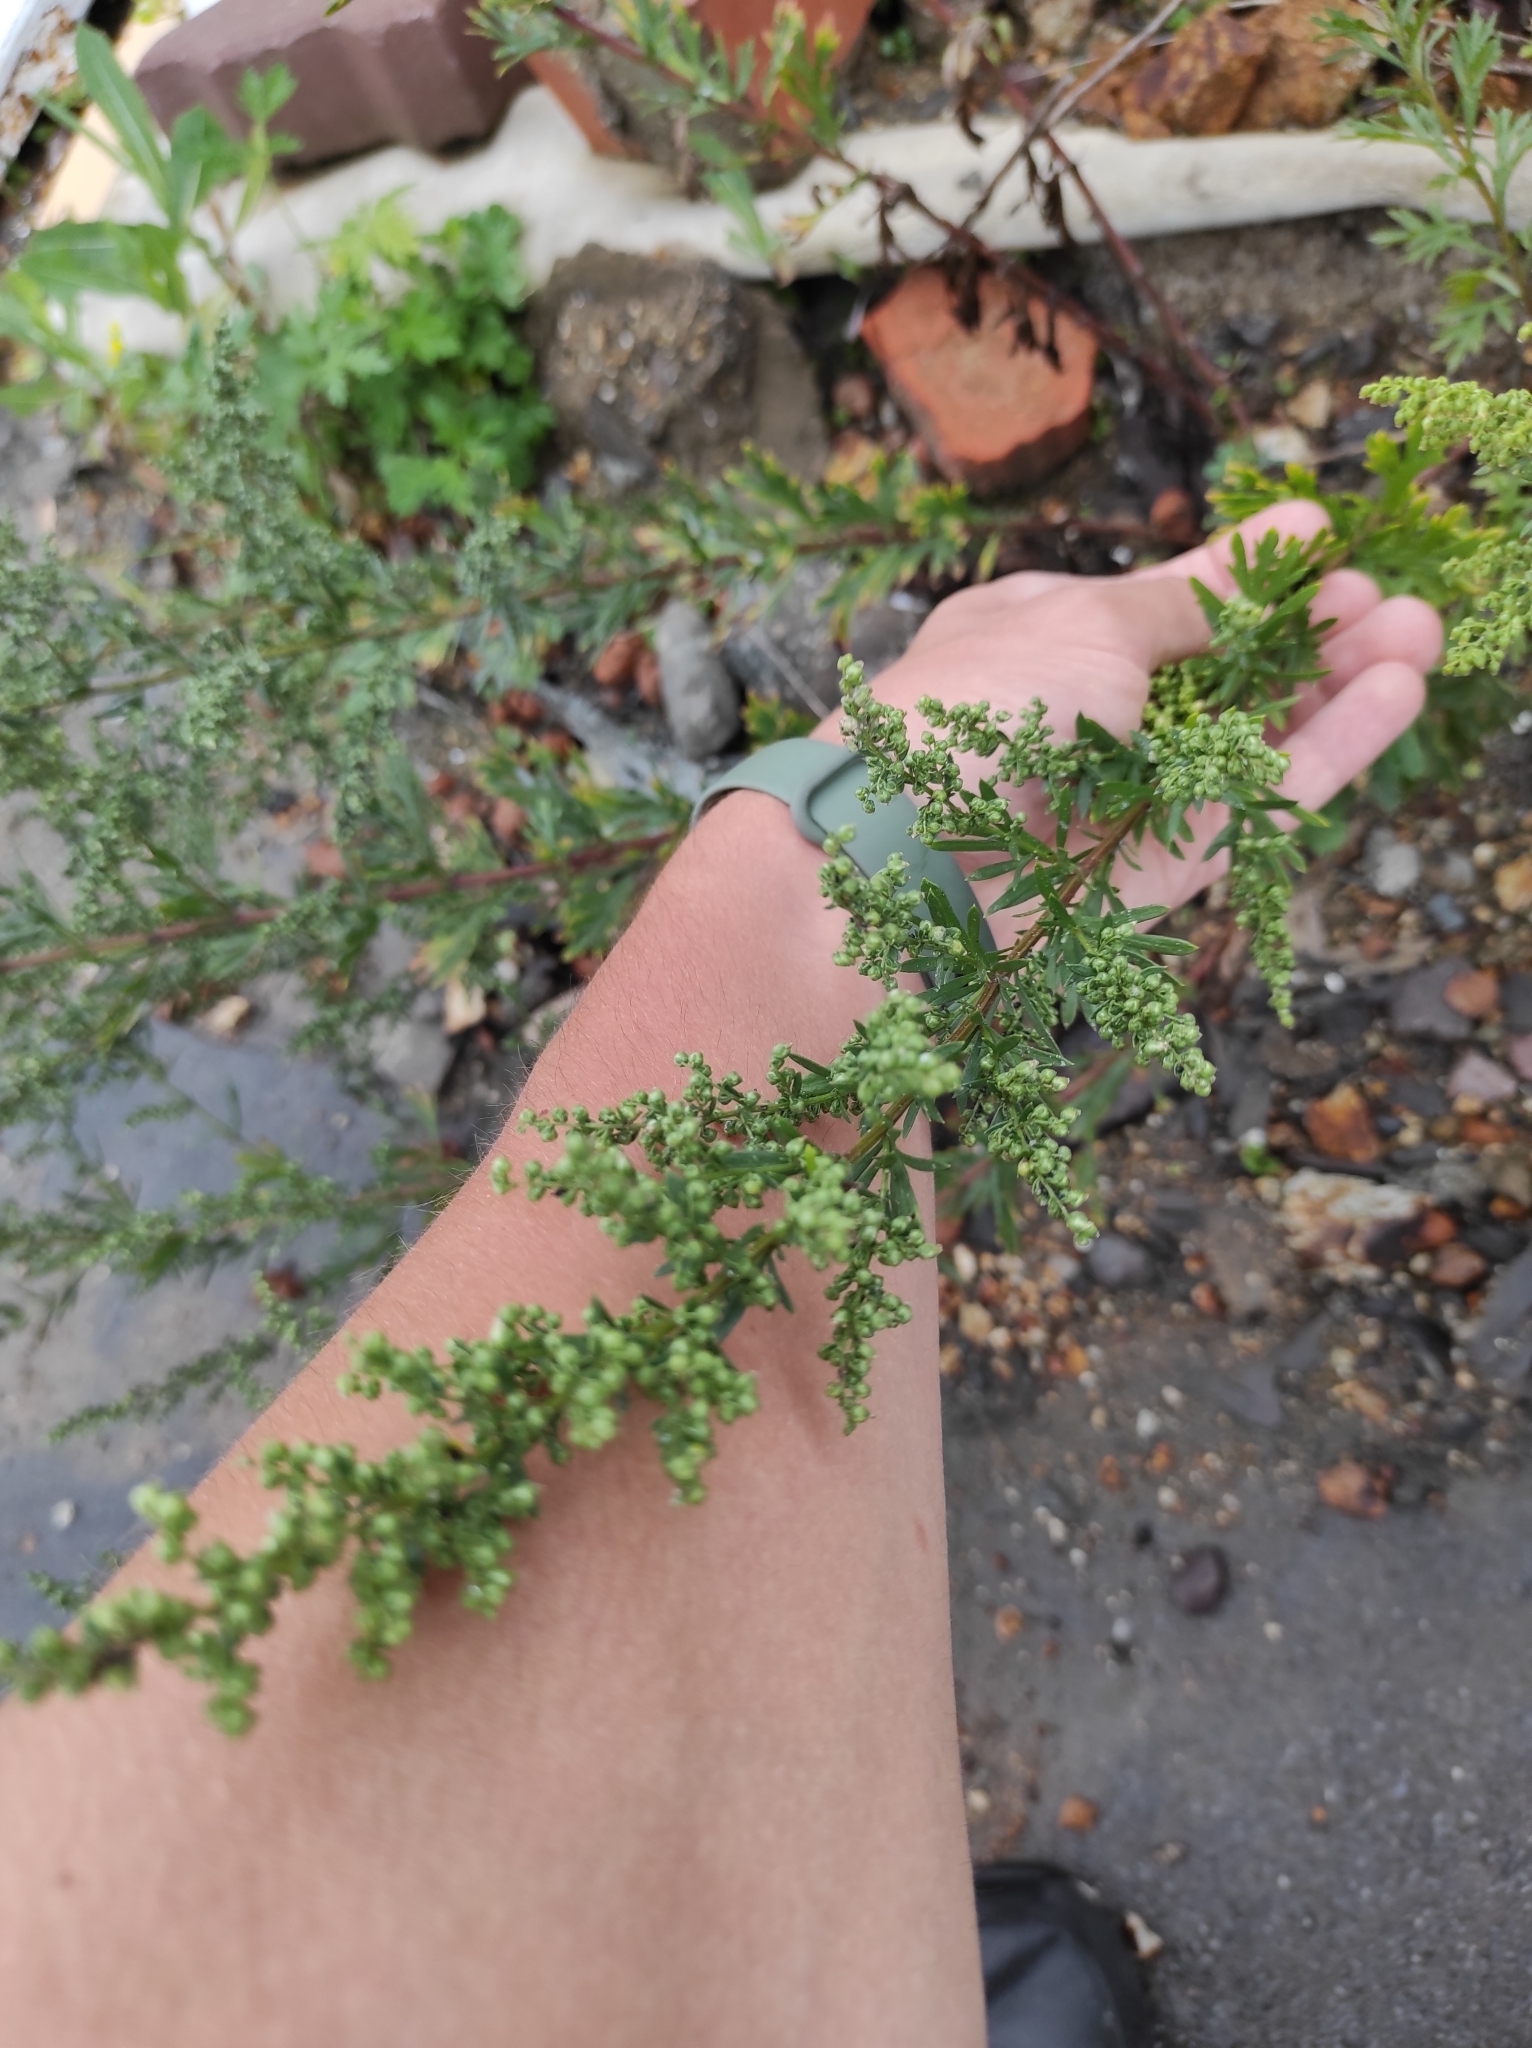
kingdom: Plantae
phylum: Tracheophyta
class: Magnoliopsida
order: Asterales
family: Asteraceae
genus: Artemisia
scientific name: Artemisia manshurica
